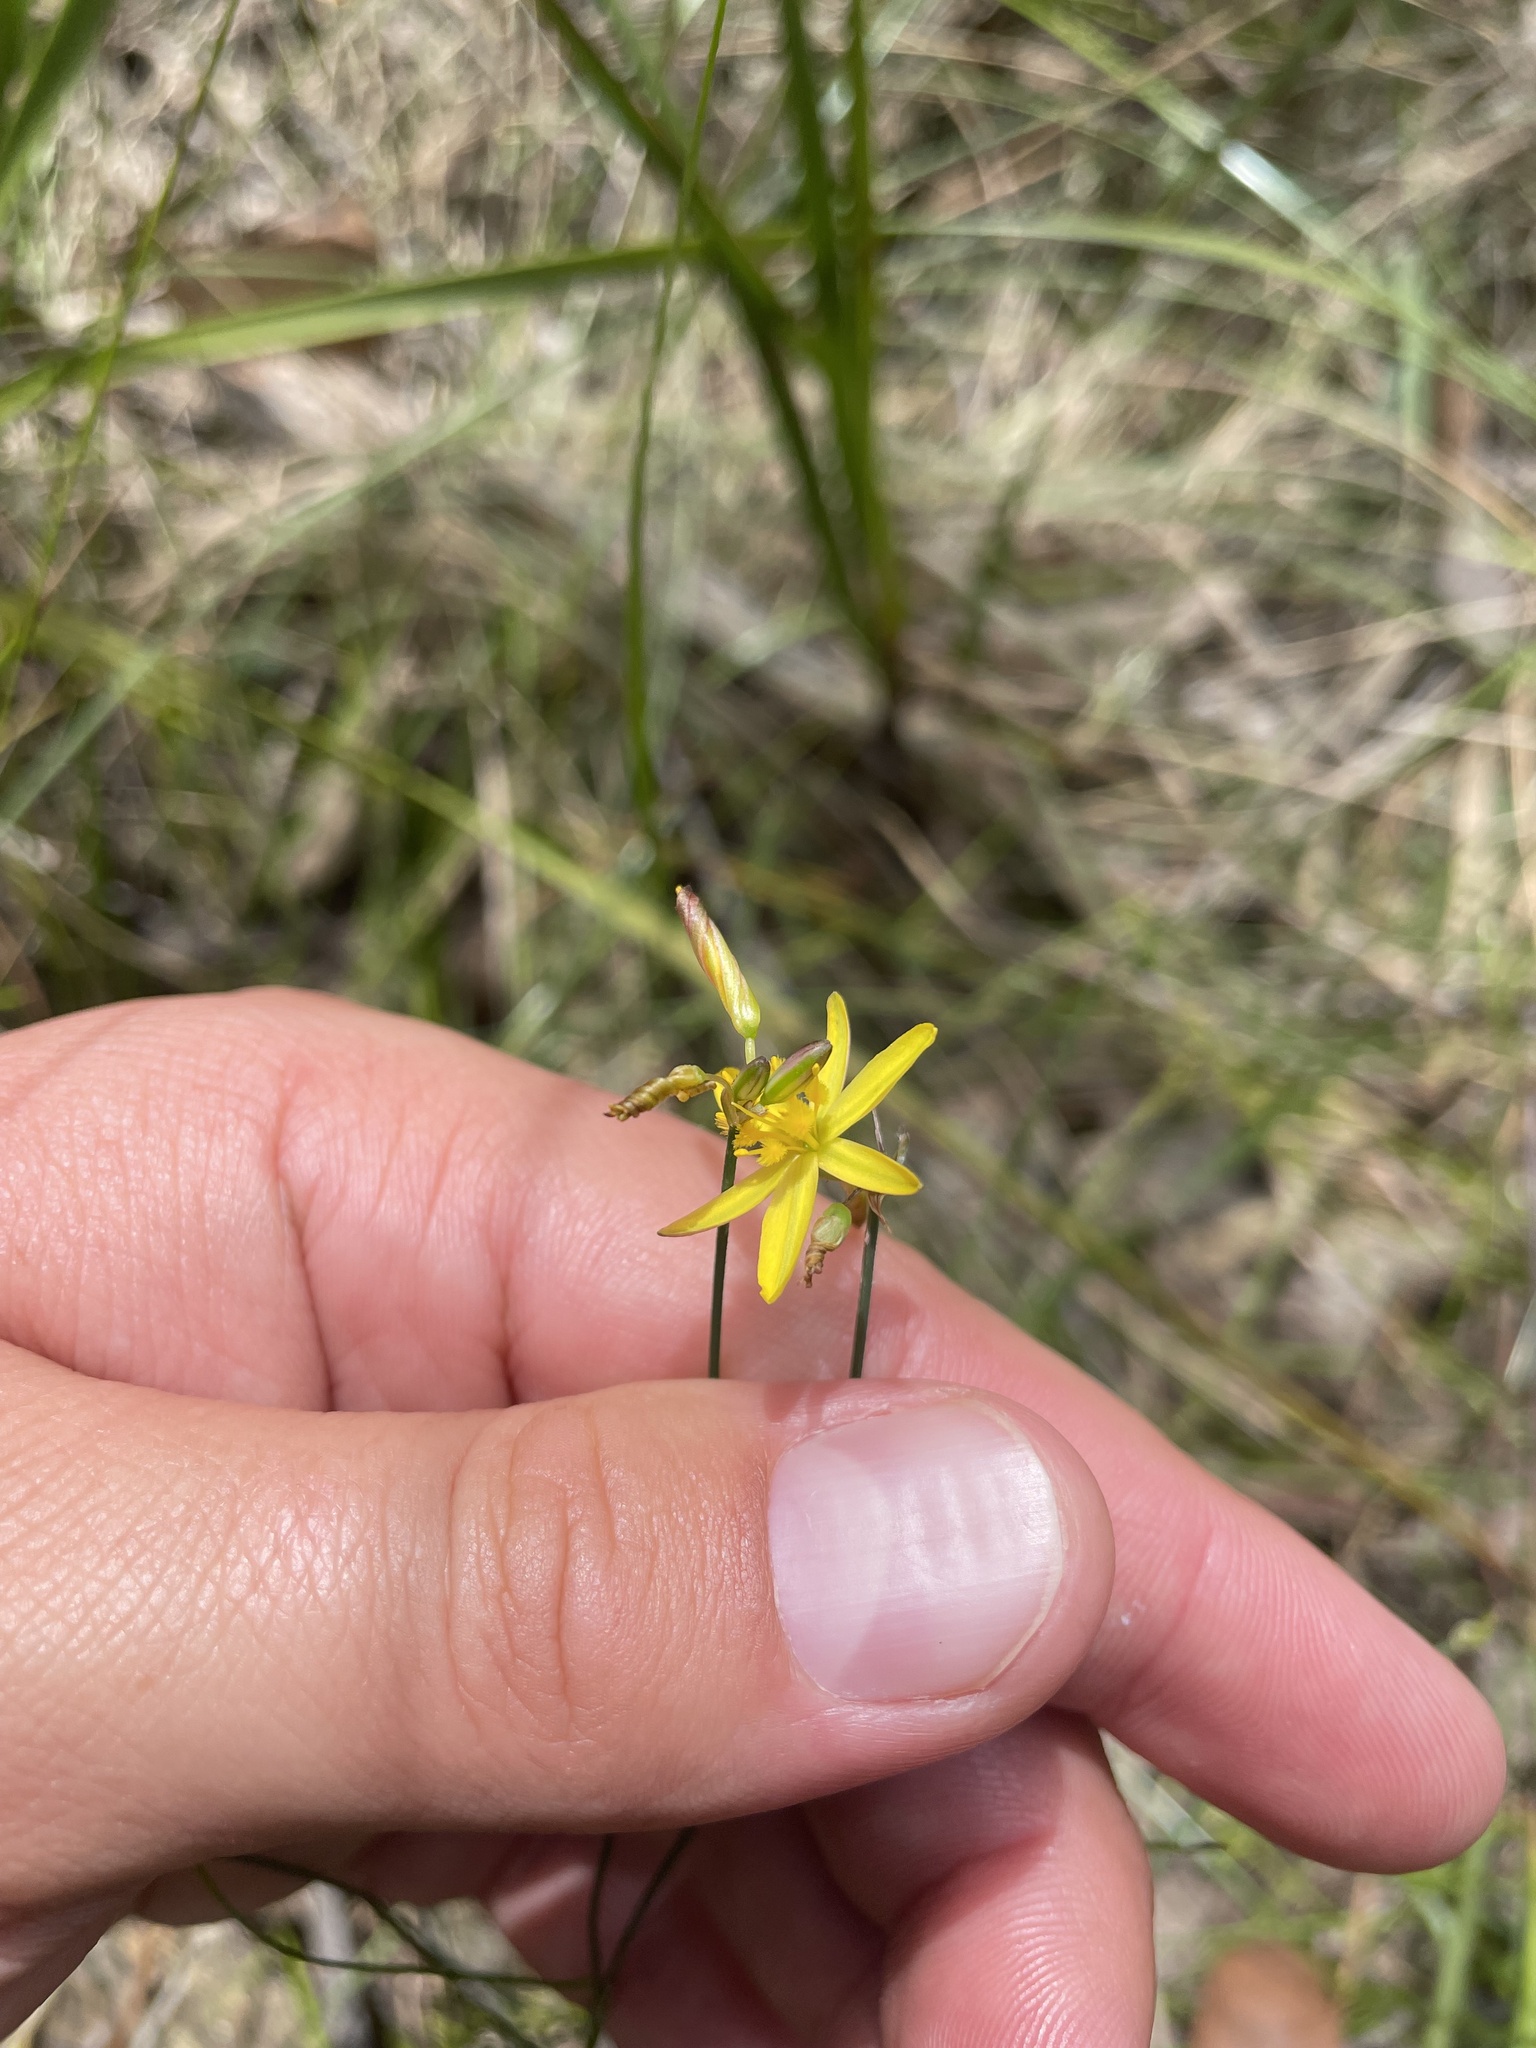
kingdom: Plantae
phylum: Tracheophyta
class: Liliopsida
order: Asparagales
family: Asphodelaceae
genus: Tricoryne
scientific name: Tricoryne elatior
